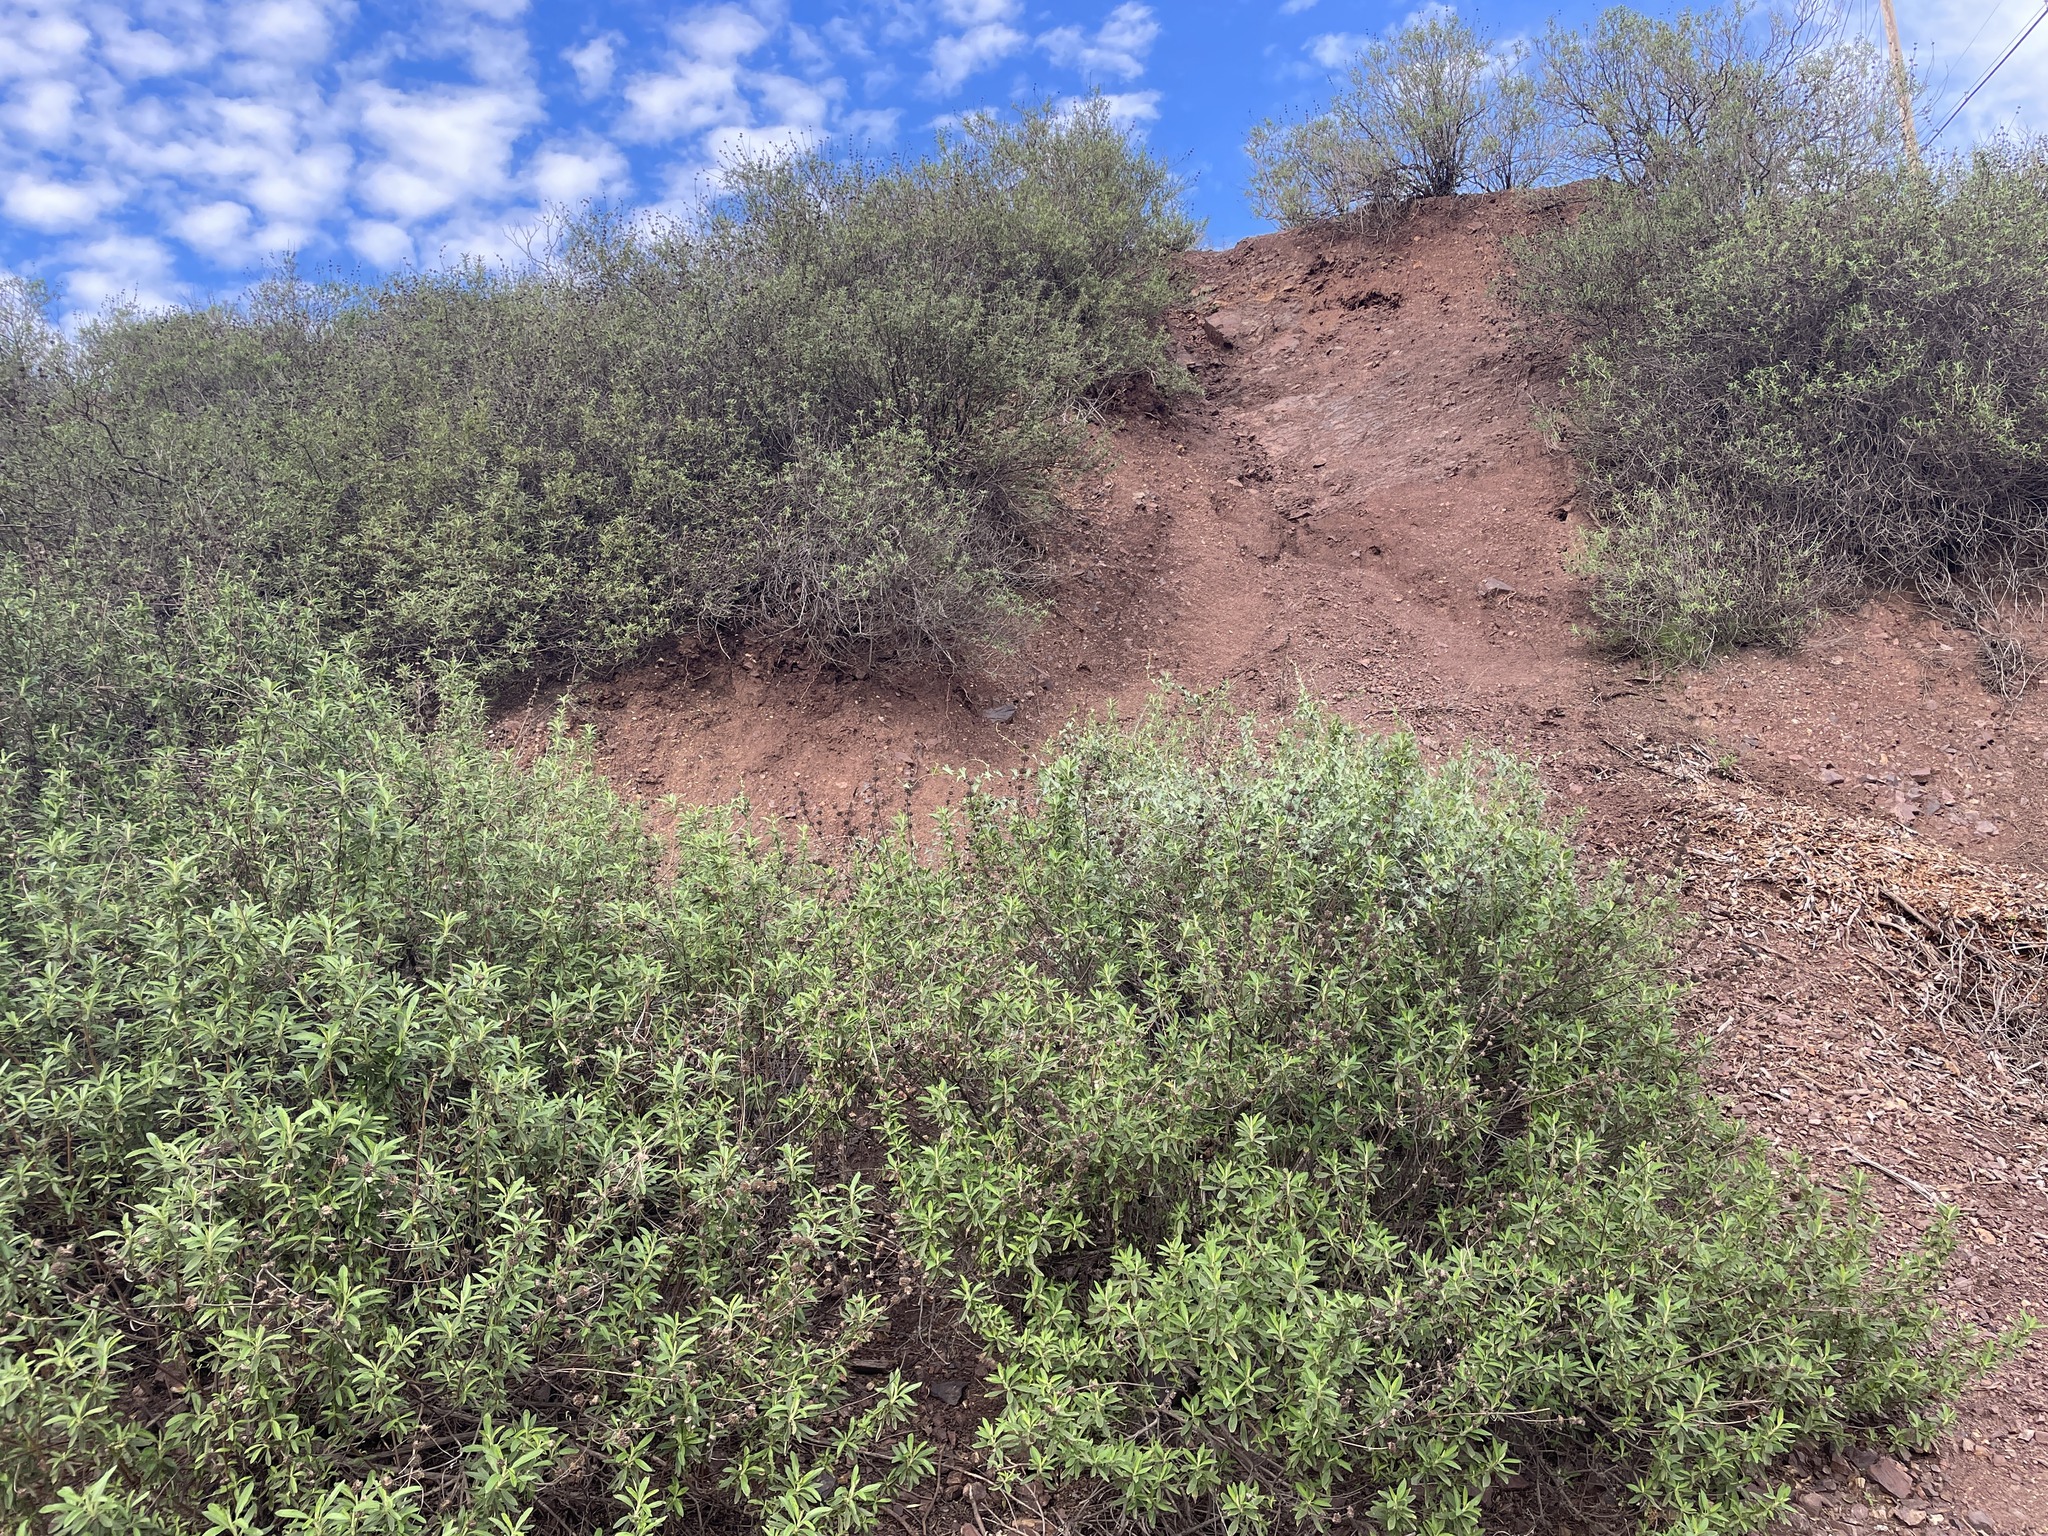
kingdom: Plantae
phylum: Tracheophyta
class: Magnoliopsida
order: Lamiales
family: Lamiaceae
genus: Salvia
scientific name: Salvia mellifera
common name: Black sage
